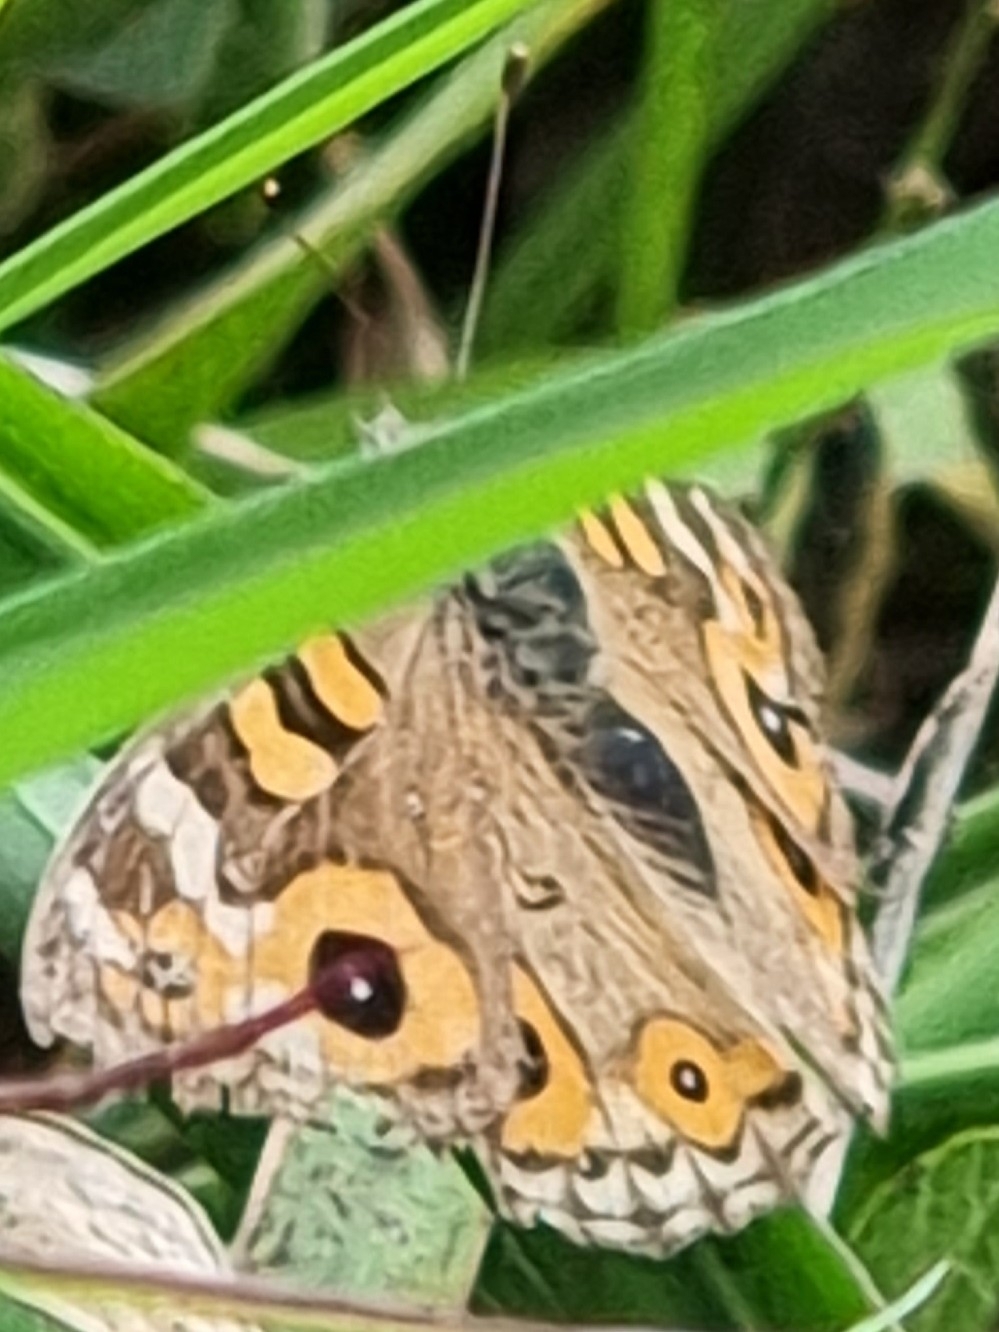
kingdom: Animalia
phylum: Arthropoda
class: Insecta
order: Lepidoptera
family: Nymphalidae
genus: Junonia
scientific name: Junonia villida
